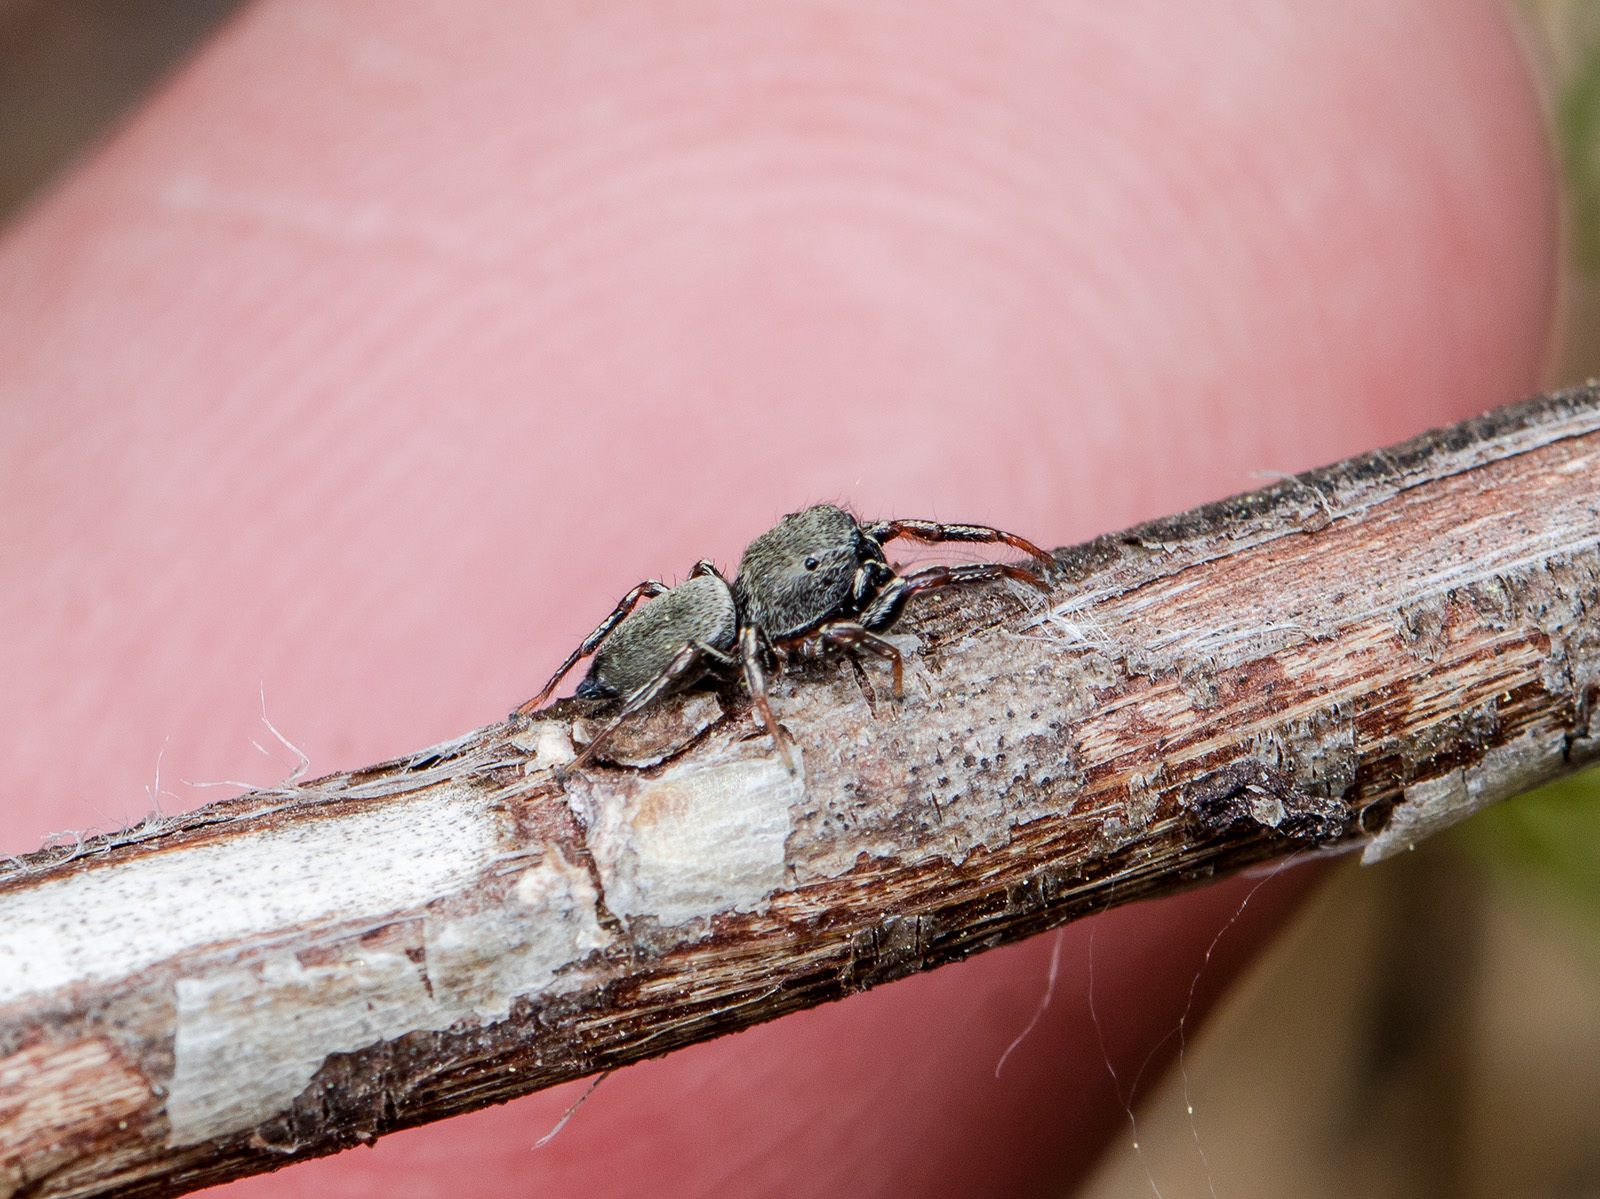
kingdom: Animalia
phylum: Arthropoda
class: Arachnida
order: Araneae
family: Salticidae
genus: Heliophanus
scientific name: Heliophanus forcipifer
